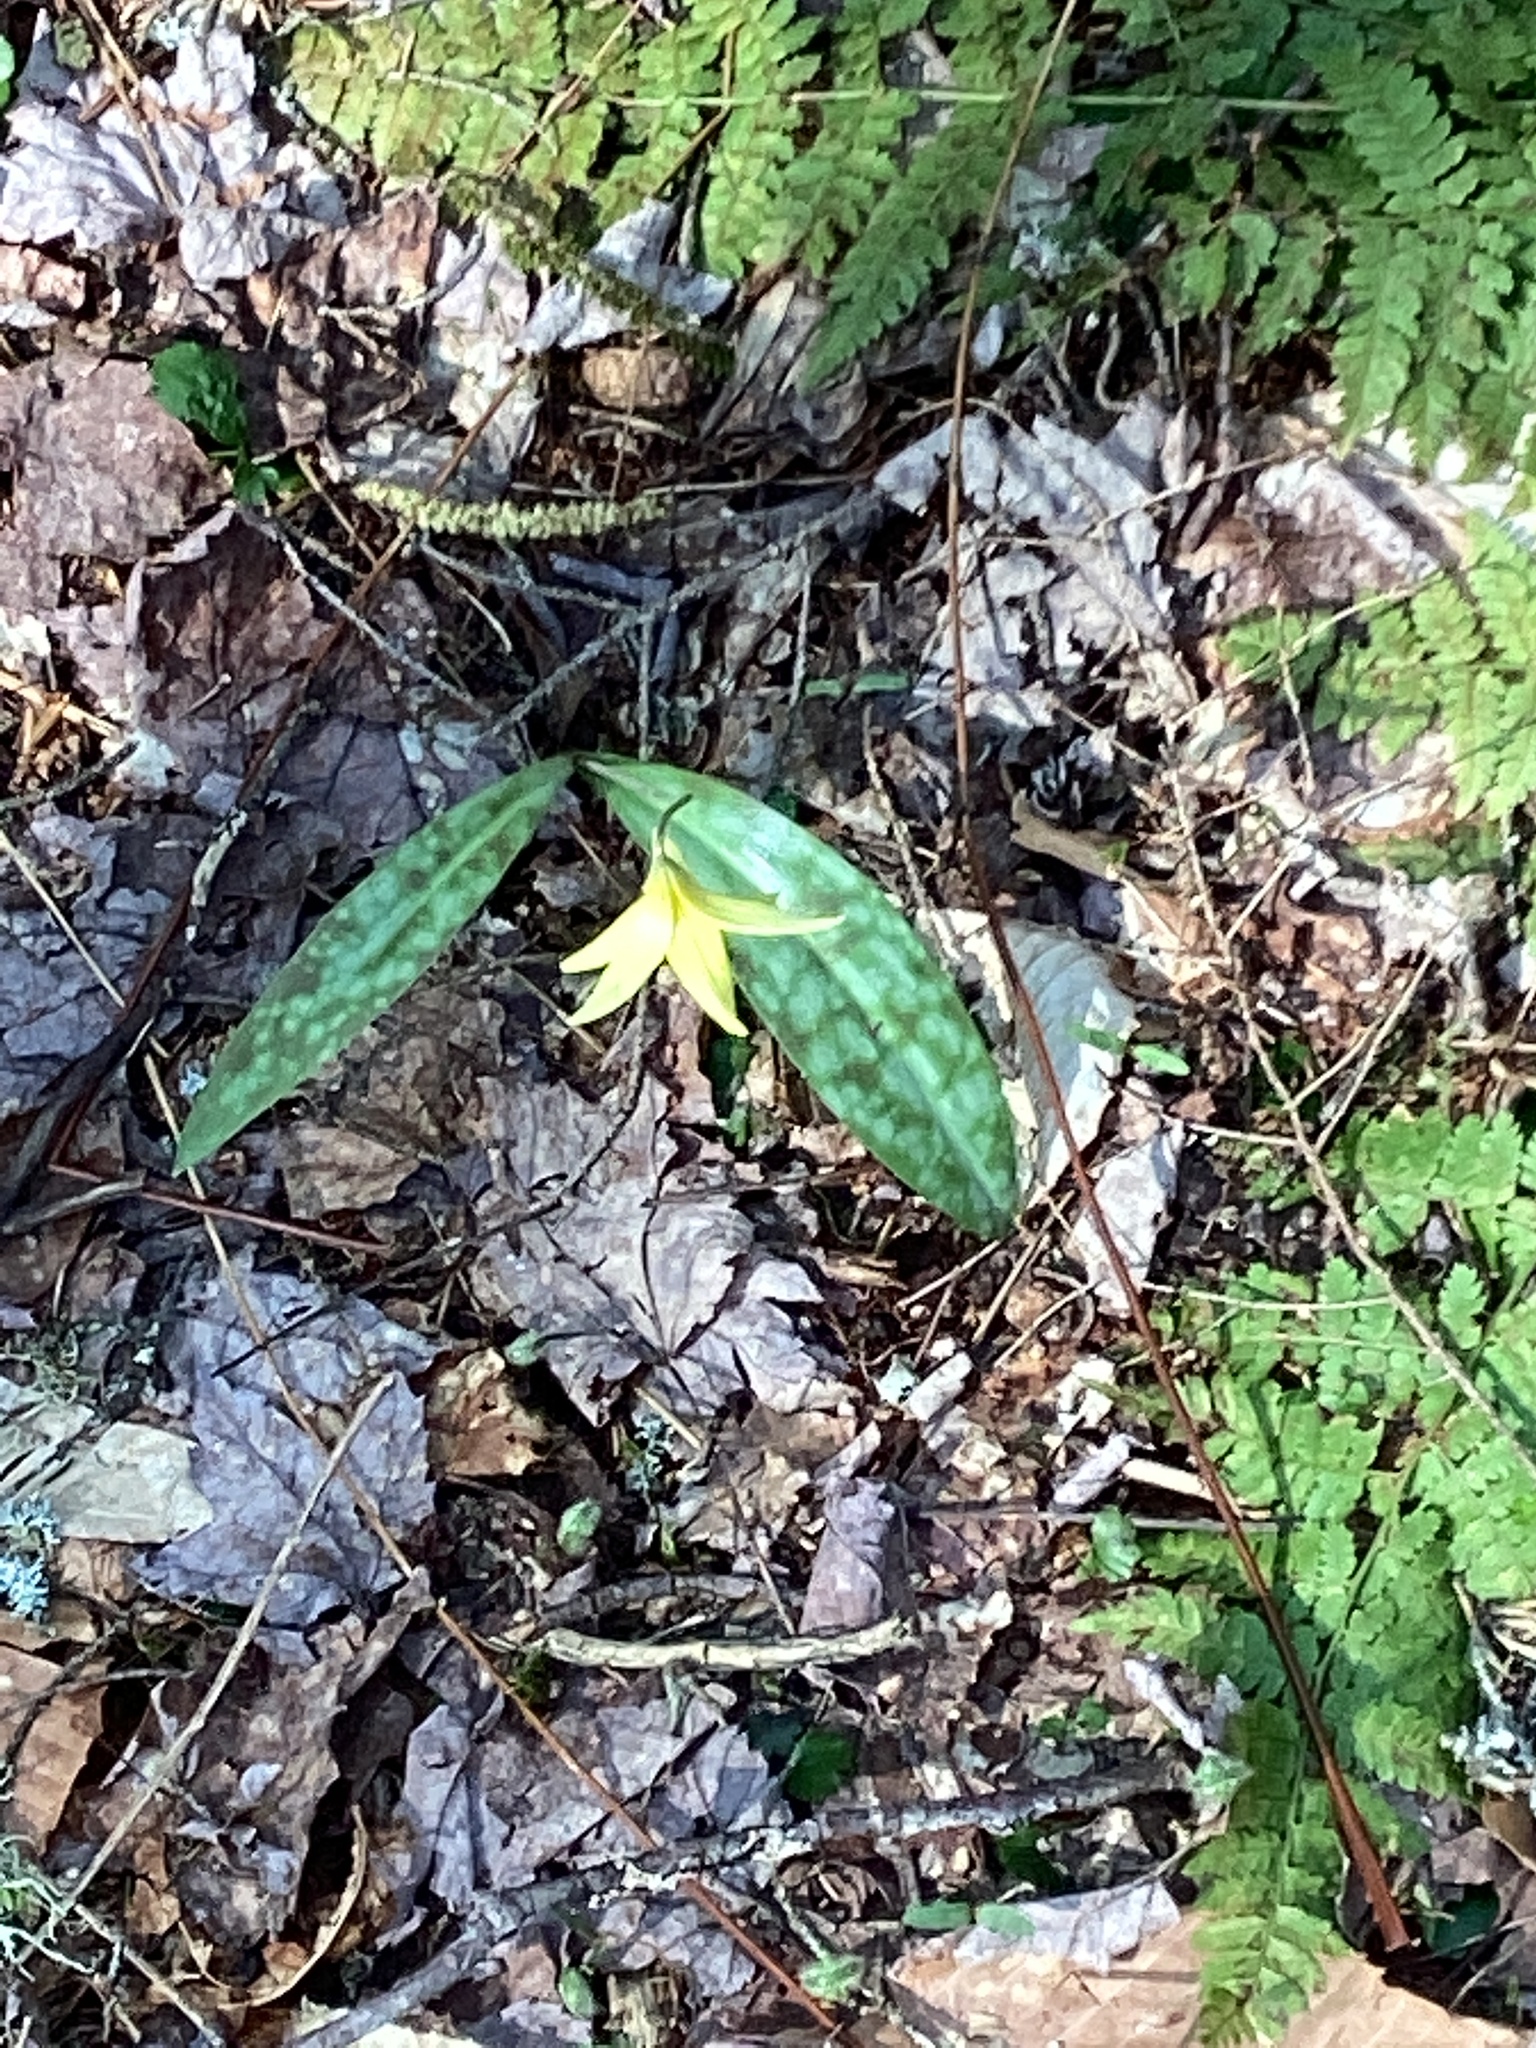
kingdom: Plantae
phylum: Tracheophyta
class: Liliopsida
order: Liliales
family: Liliaceae
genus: Erythronium
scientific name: Erythronium americanum
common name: Yellow adder's-tongue
